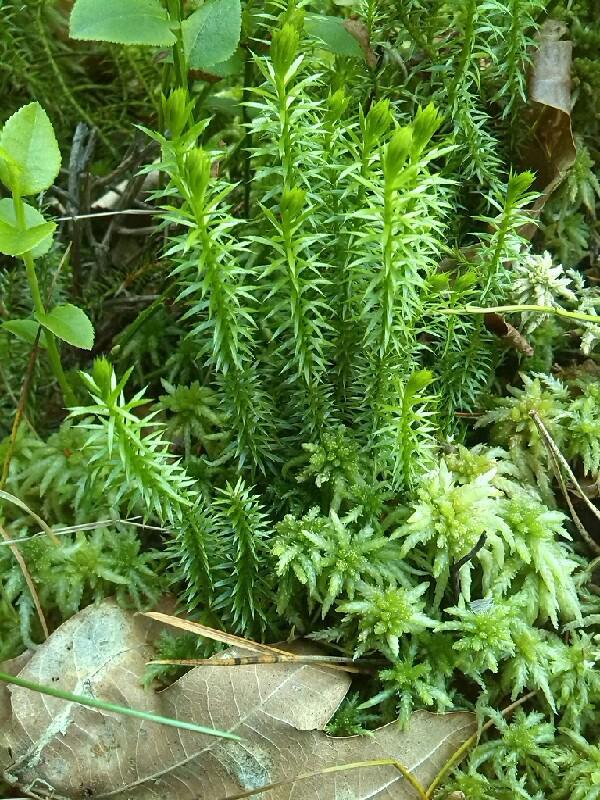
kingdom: Plantae
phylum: Tracheophyta
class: Lycopodiopsida
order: Lycopodiales
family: Lycopodiaceae
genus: Spinulum
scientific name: Spinulum annotinum
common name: Interrupted club-moss
